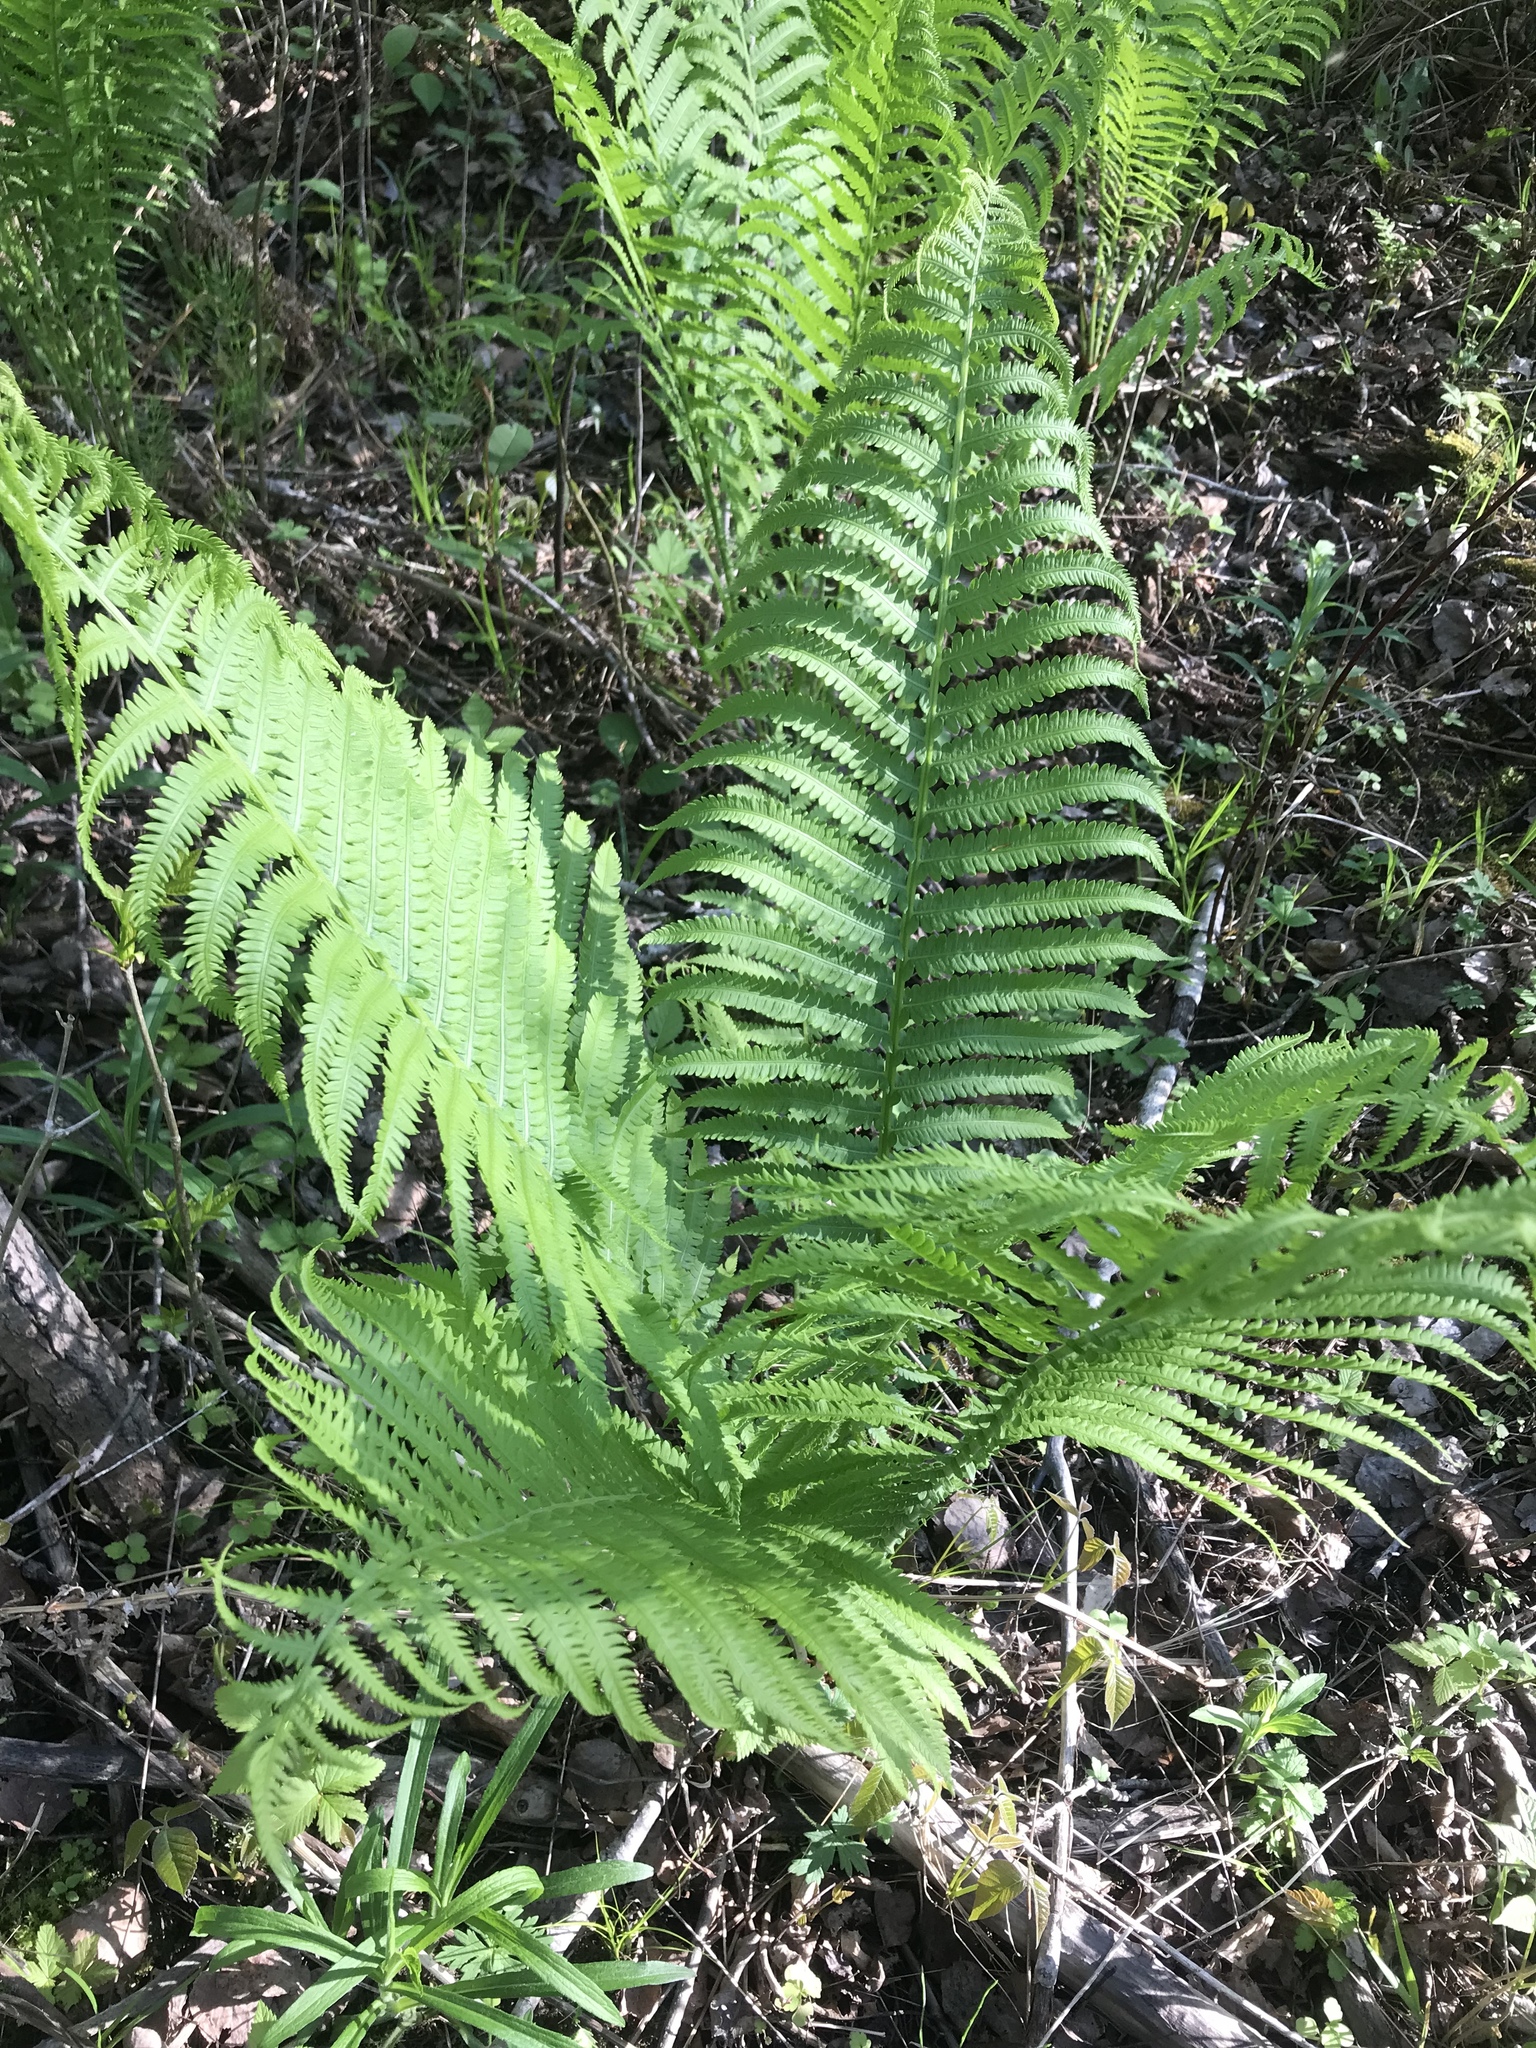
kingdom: Plantae
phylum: Tracheophyta
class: Polypodiopsida
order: Polypodiales
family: Onocleaceae
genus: Matteuccia
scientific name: Matteuccia struthiopteris
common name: Ostrich fern
